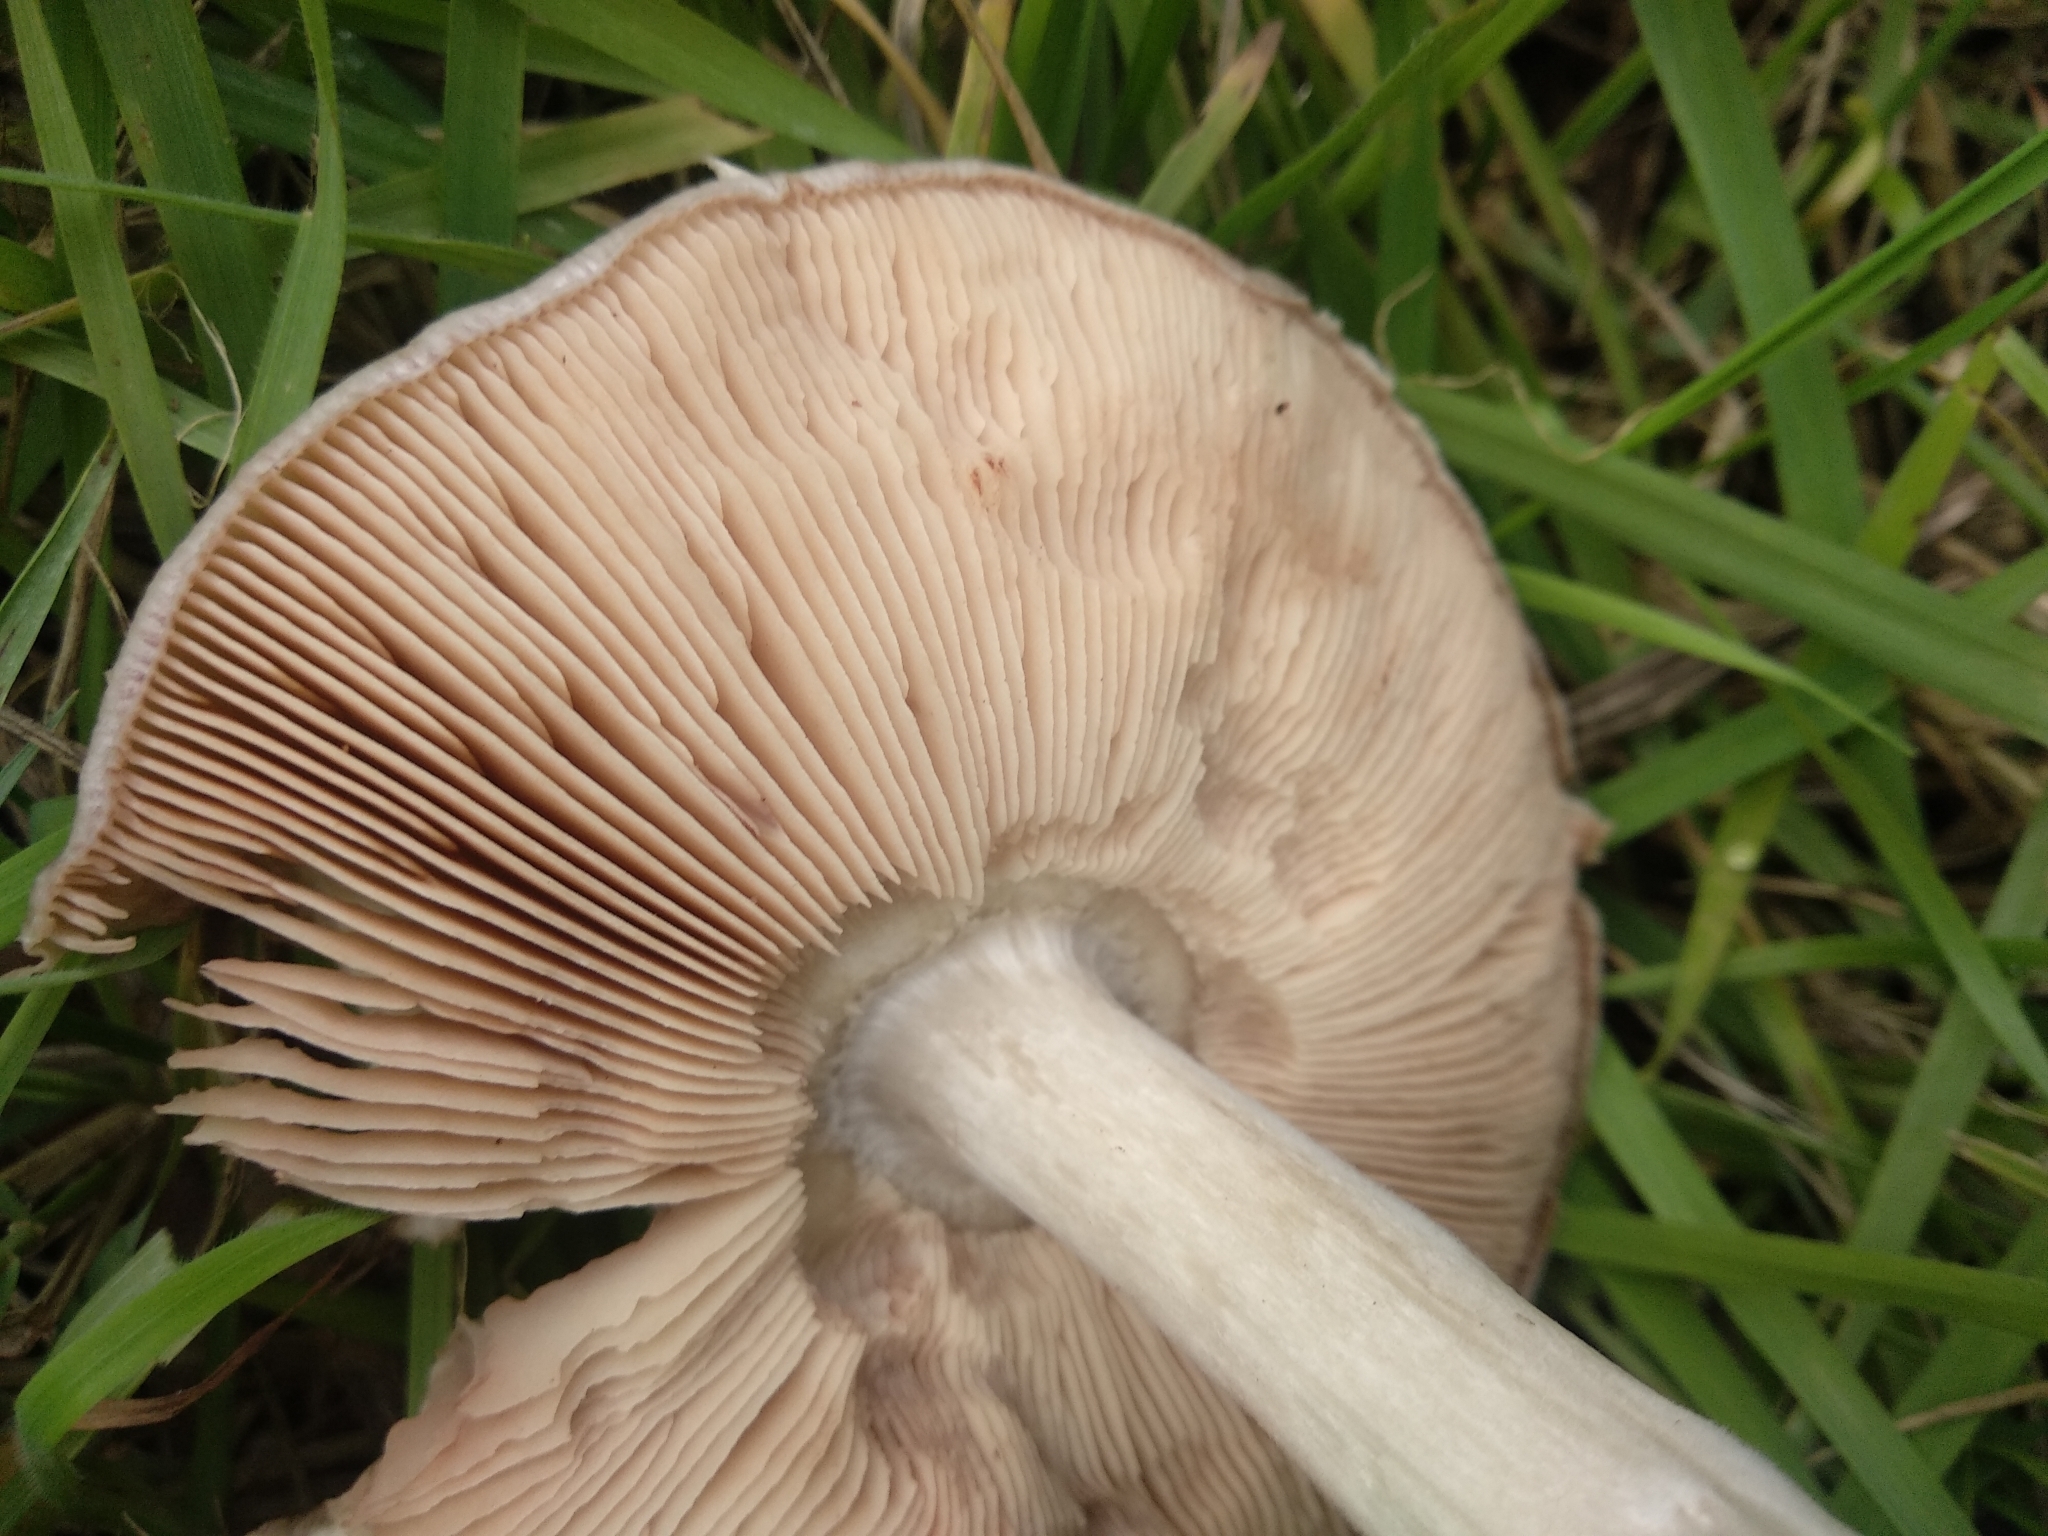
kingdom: Fungi
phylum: Basidiomycota
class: Agaricomycetes
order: Agaricales
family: Pluteaceae
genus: Volvopluteus
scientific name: Volvopluteus gloiocephalus
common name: Stubble rosegill
